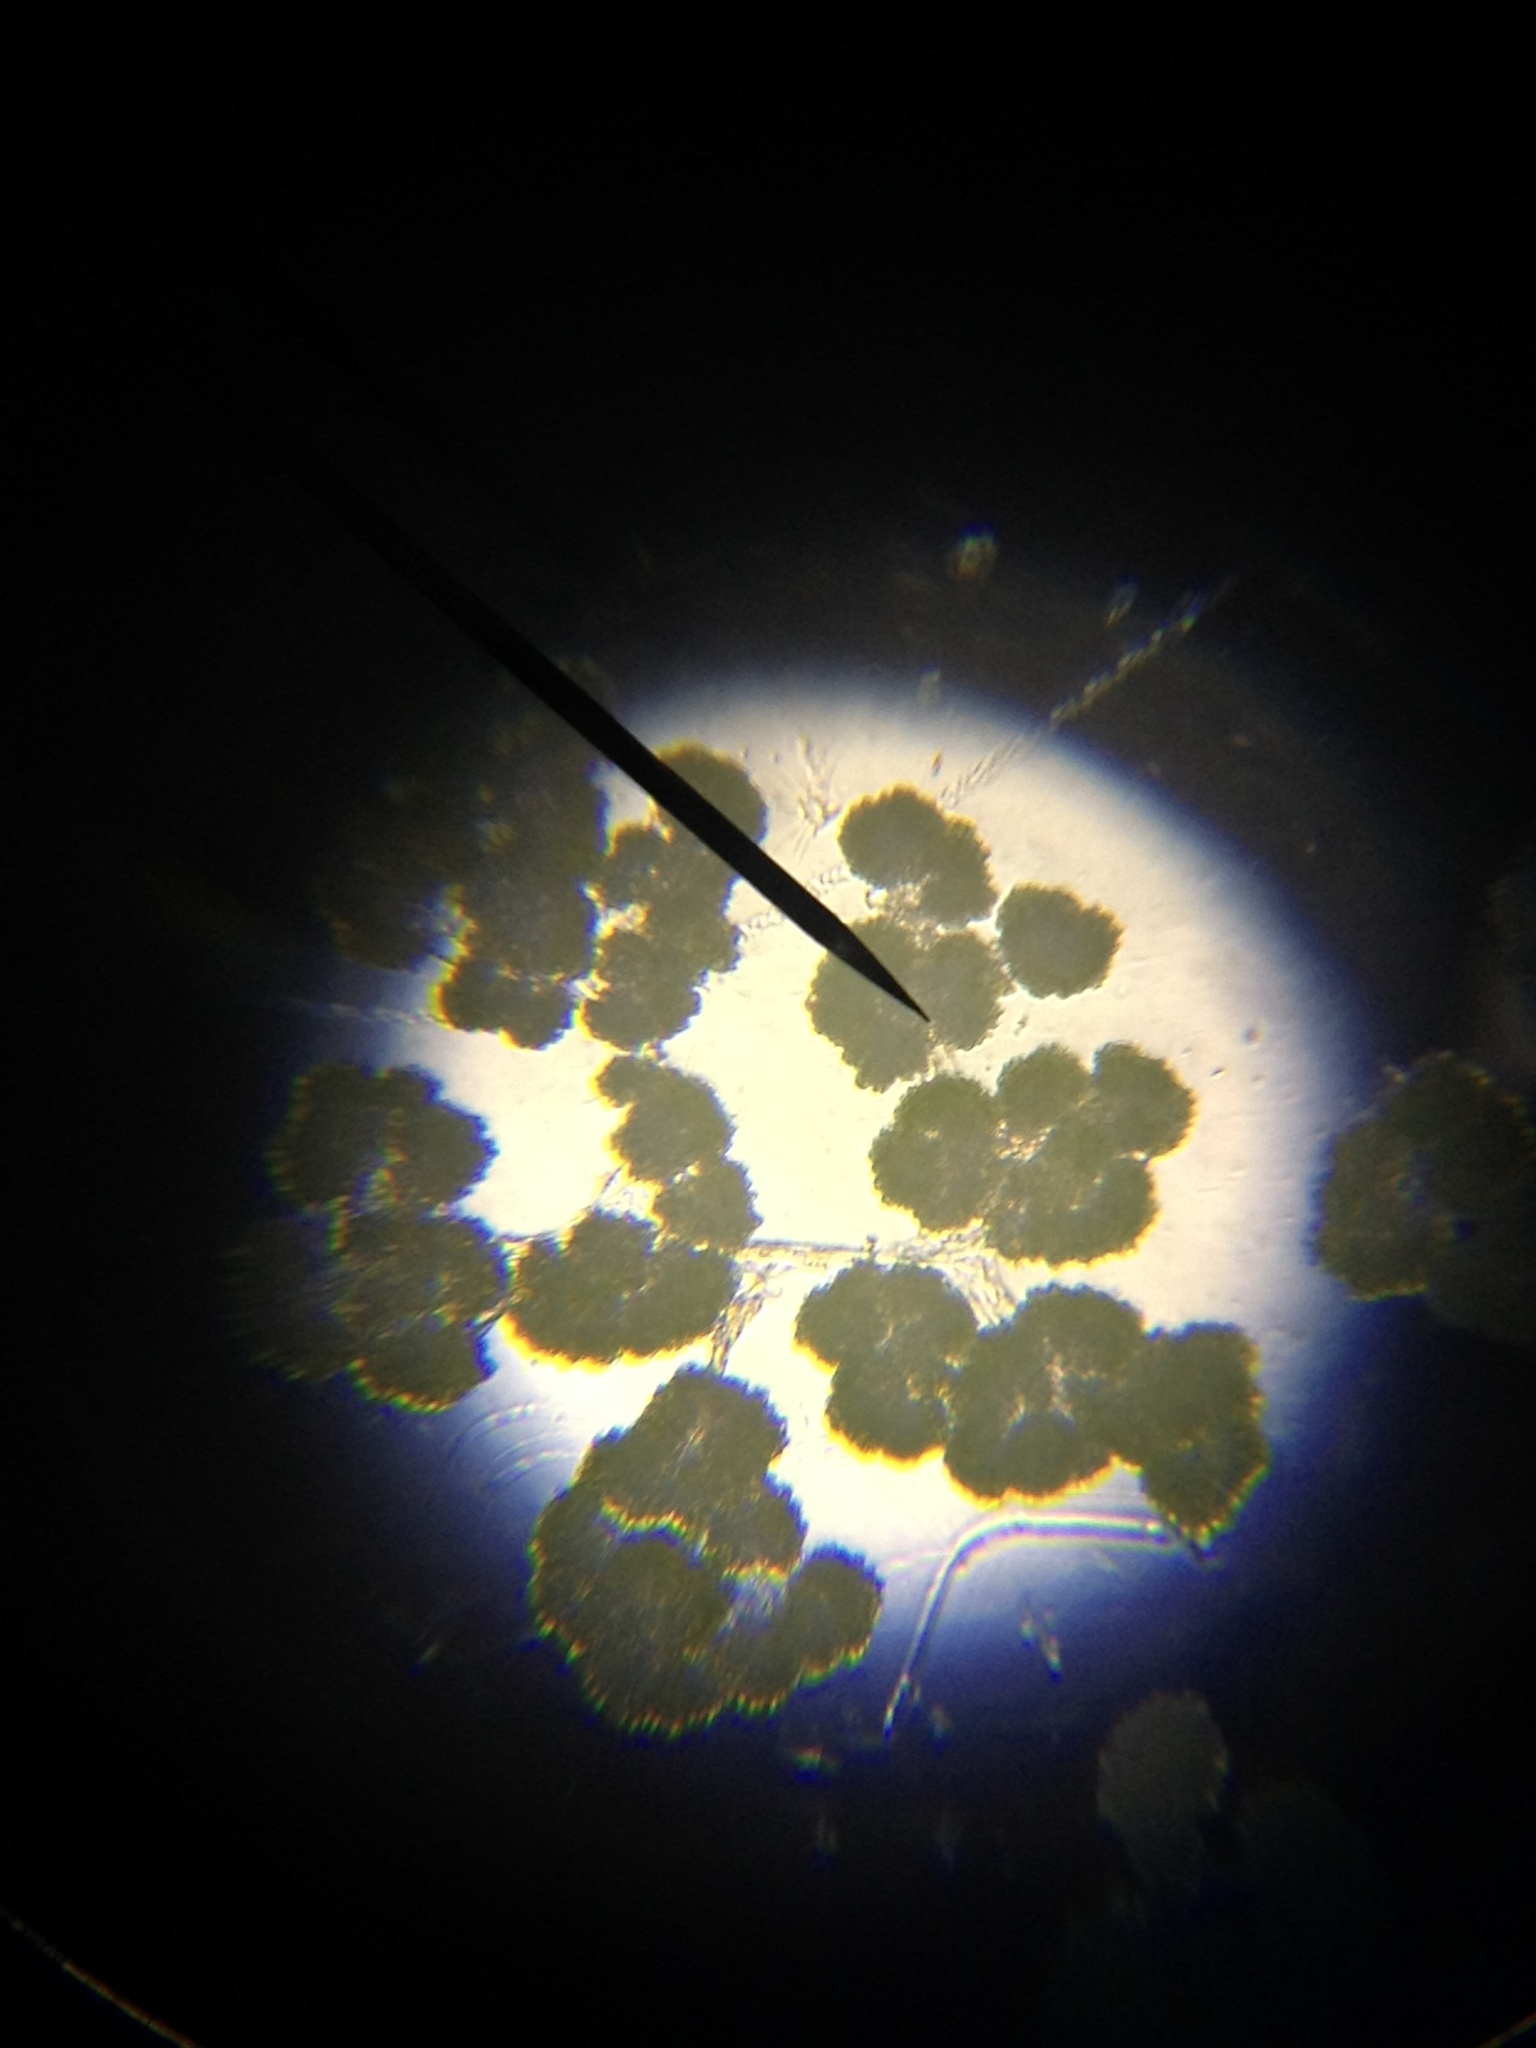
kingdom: Bacteria
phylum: Cyanobacteria
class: Cyanobacteriia
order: Cyanobacteriales
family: Aphanizomenonaceae
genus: Gloeotrichia
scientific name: Gloeotrichia
